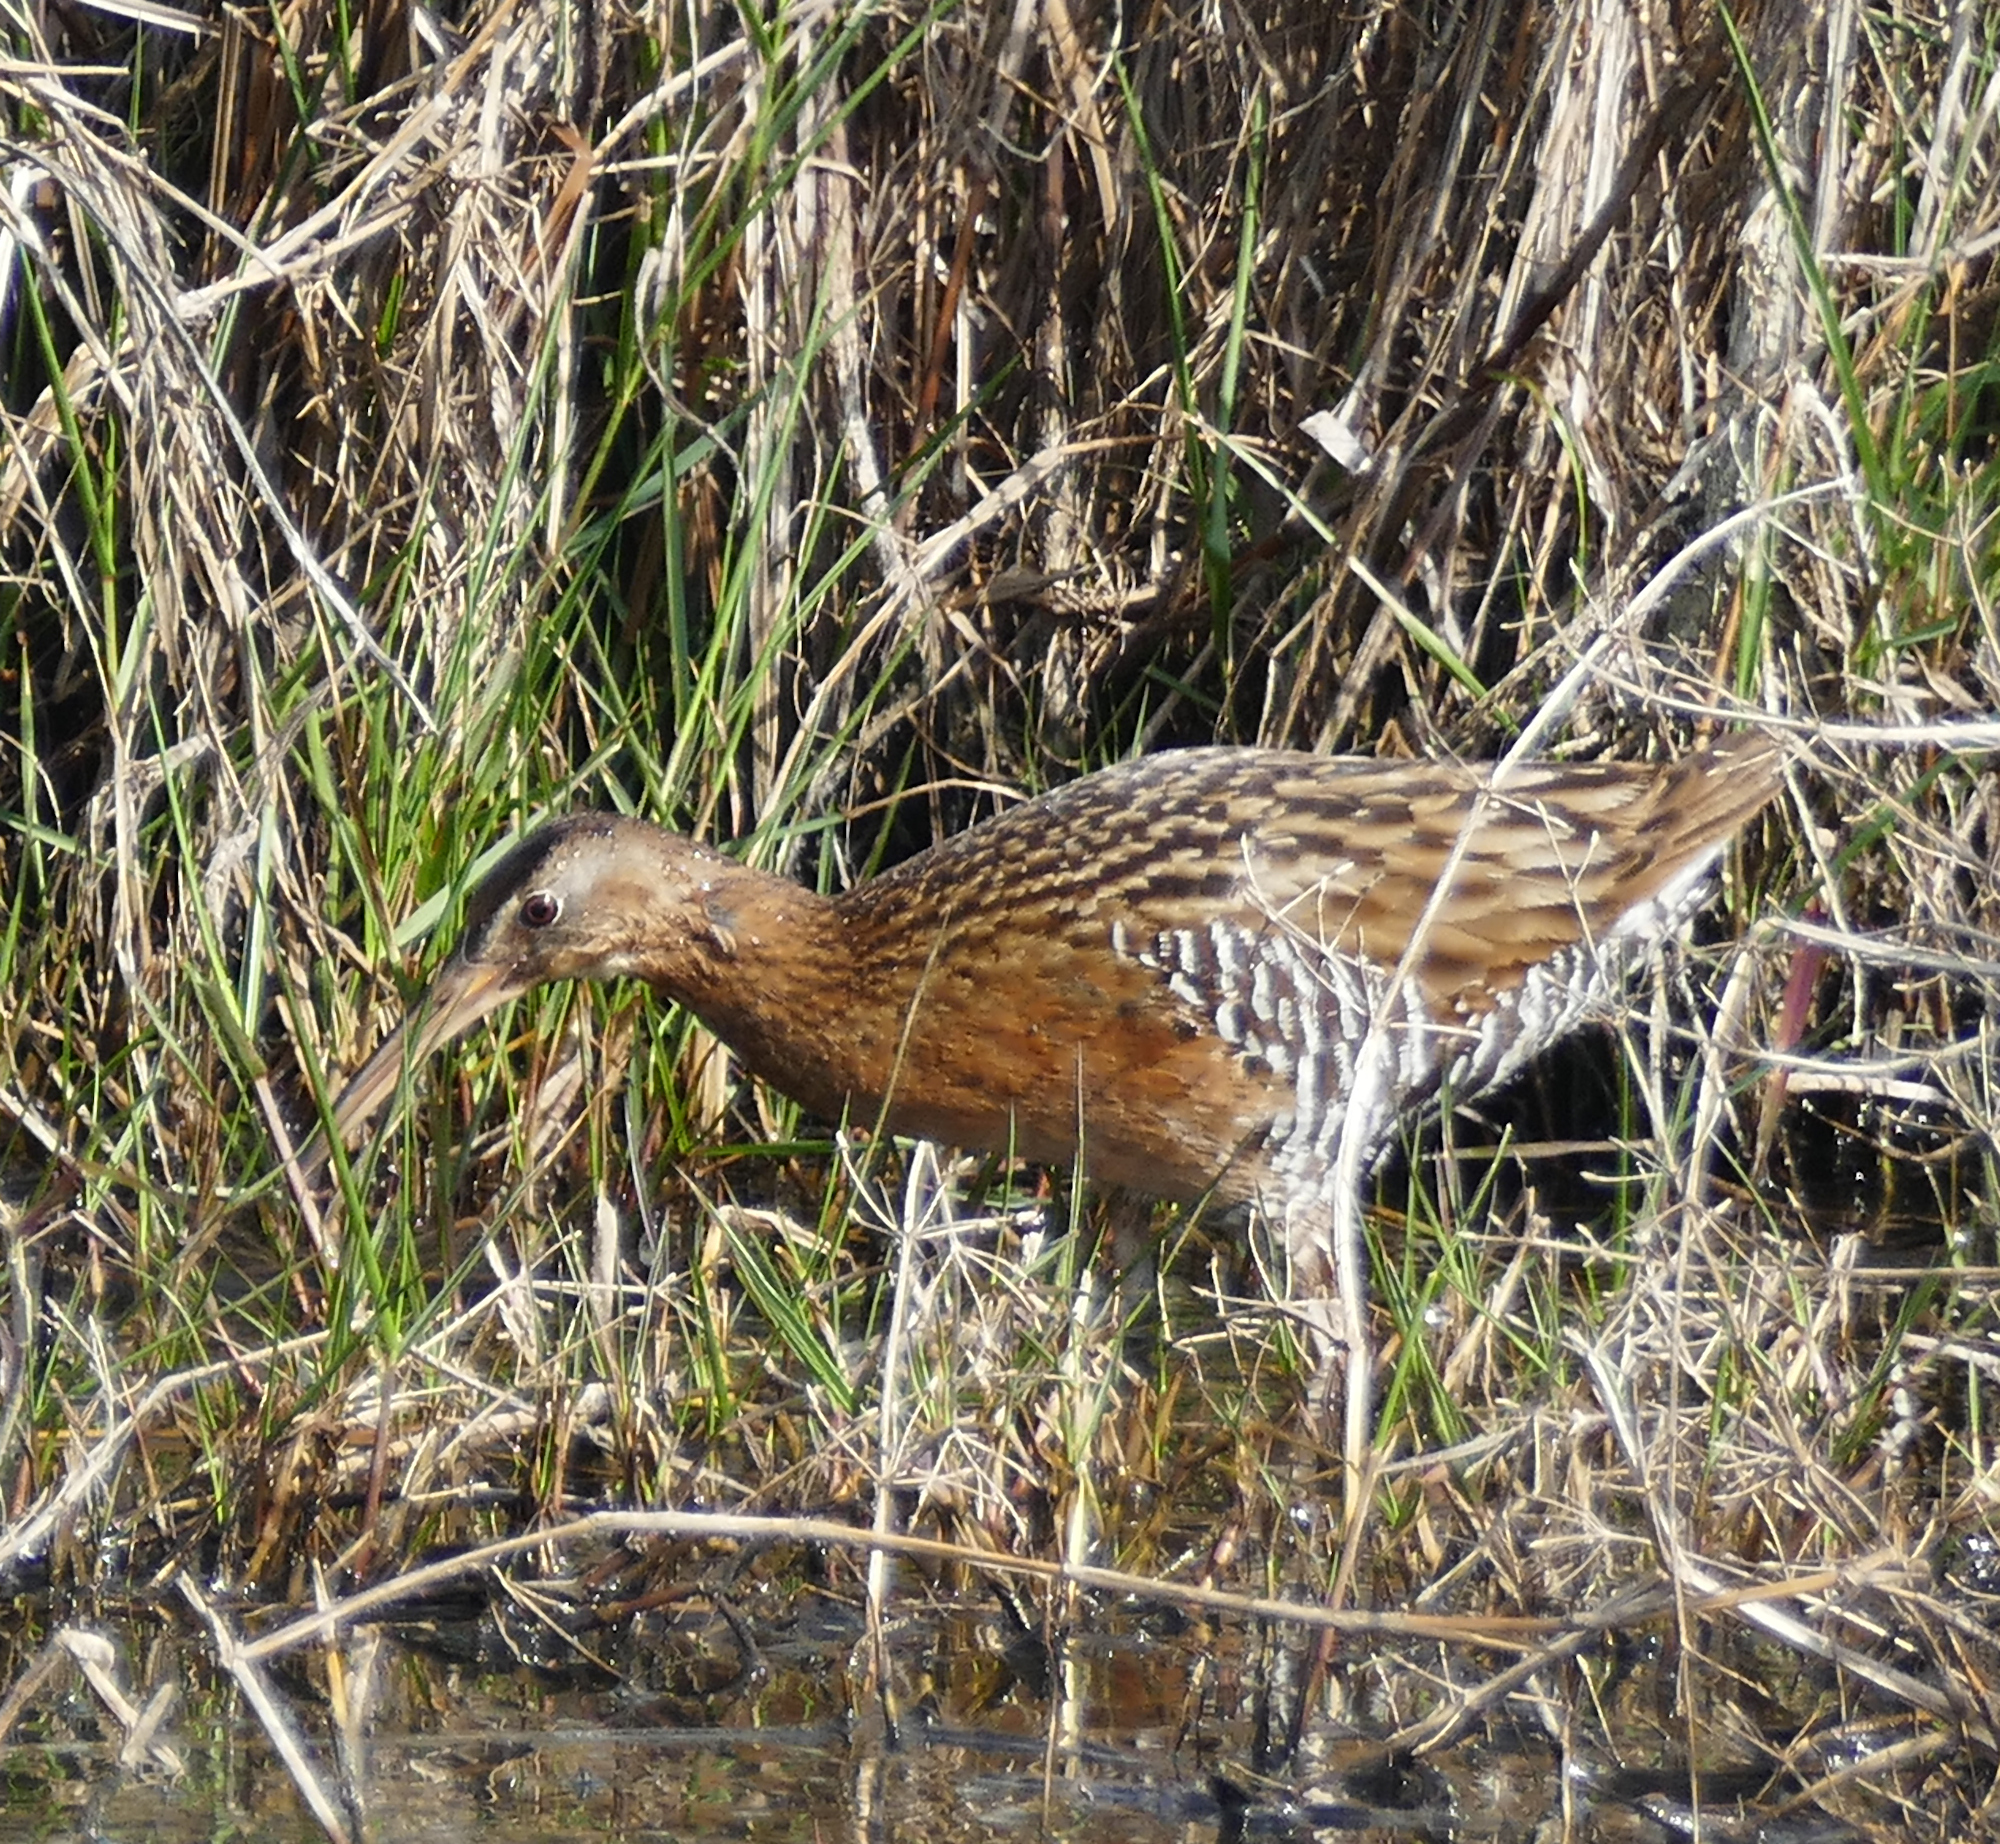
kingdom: Animalia
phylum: Chordata
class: Aves
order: Gruiformes
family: Rallidae
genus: Rallus
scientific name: Rallus elegans
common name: King rail
